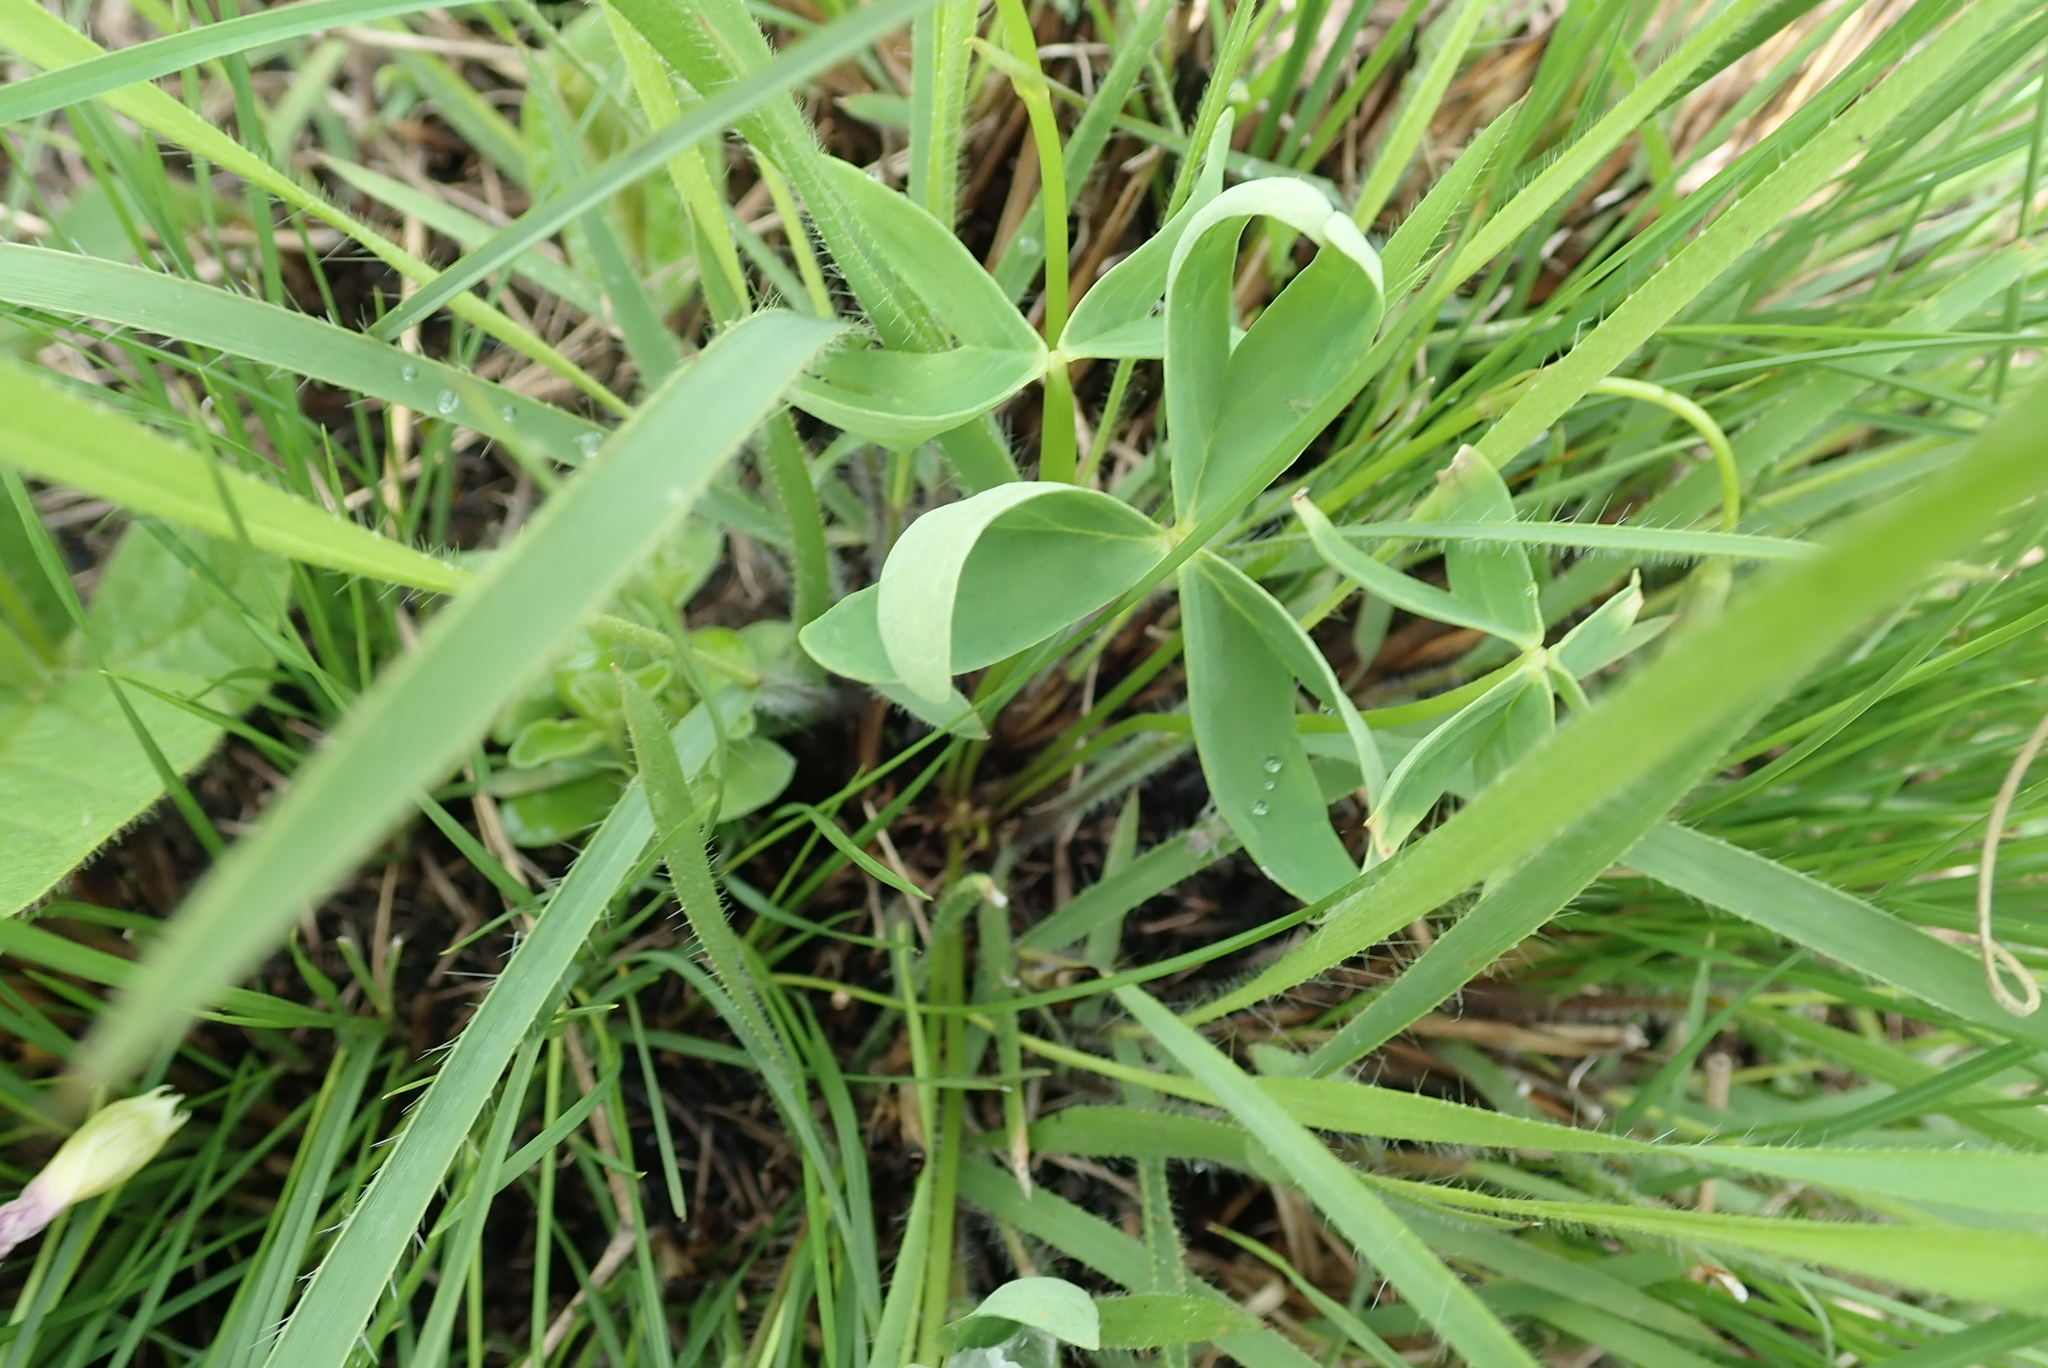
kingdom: Plantae
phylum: Tracheophyta
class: Magnoliopsida
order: Oxalidales
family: Oxalidaceae
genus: Oxalis
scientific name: Oxalis smithiana
